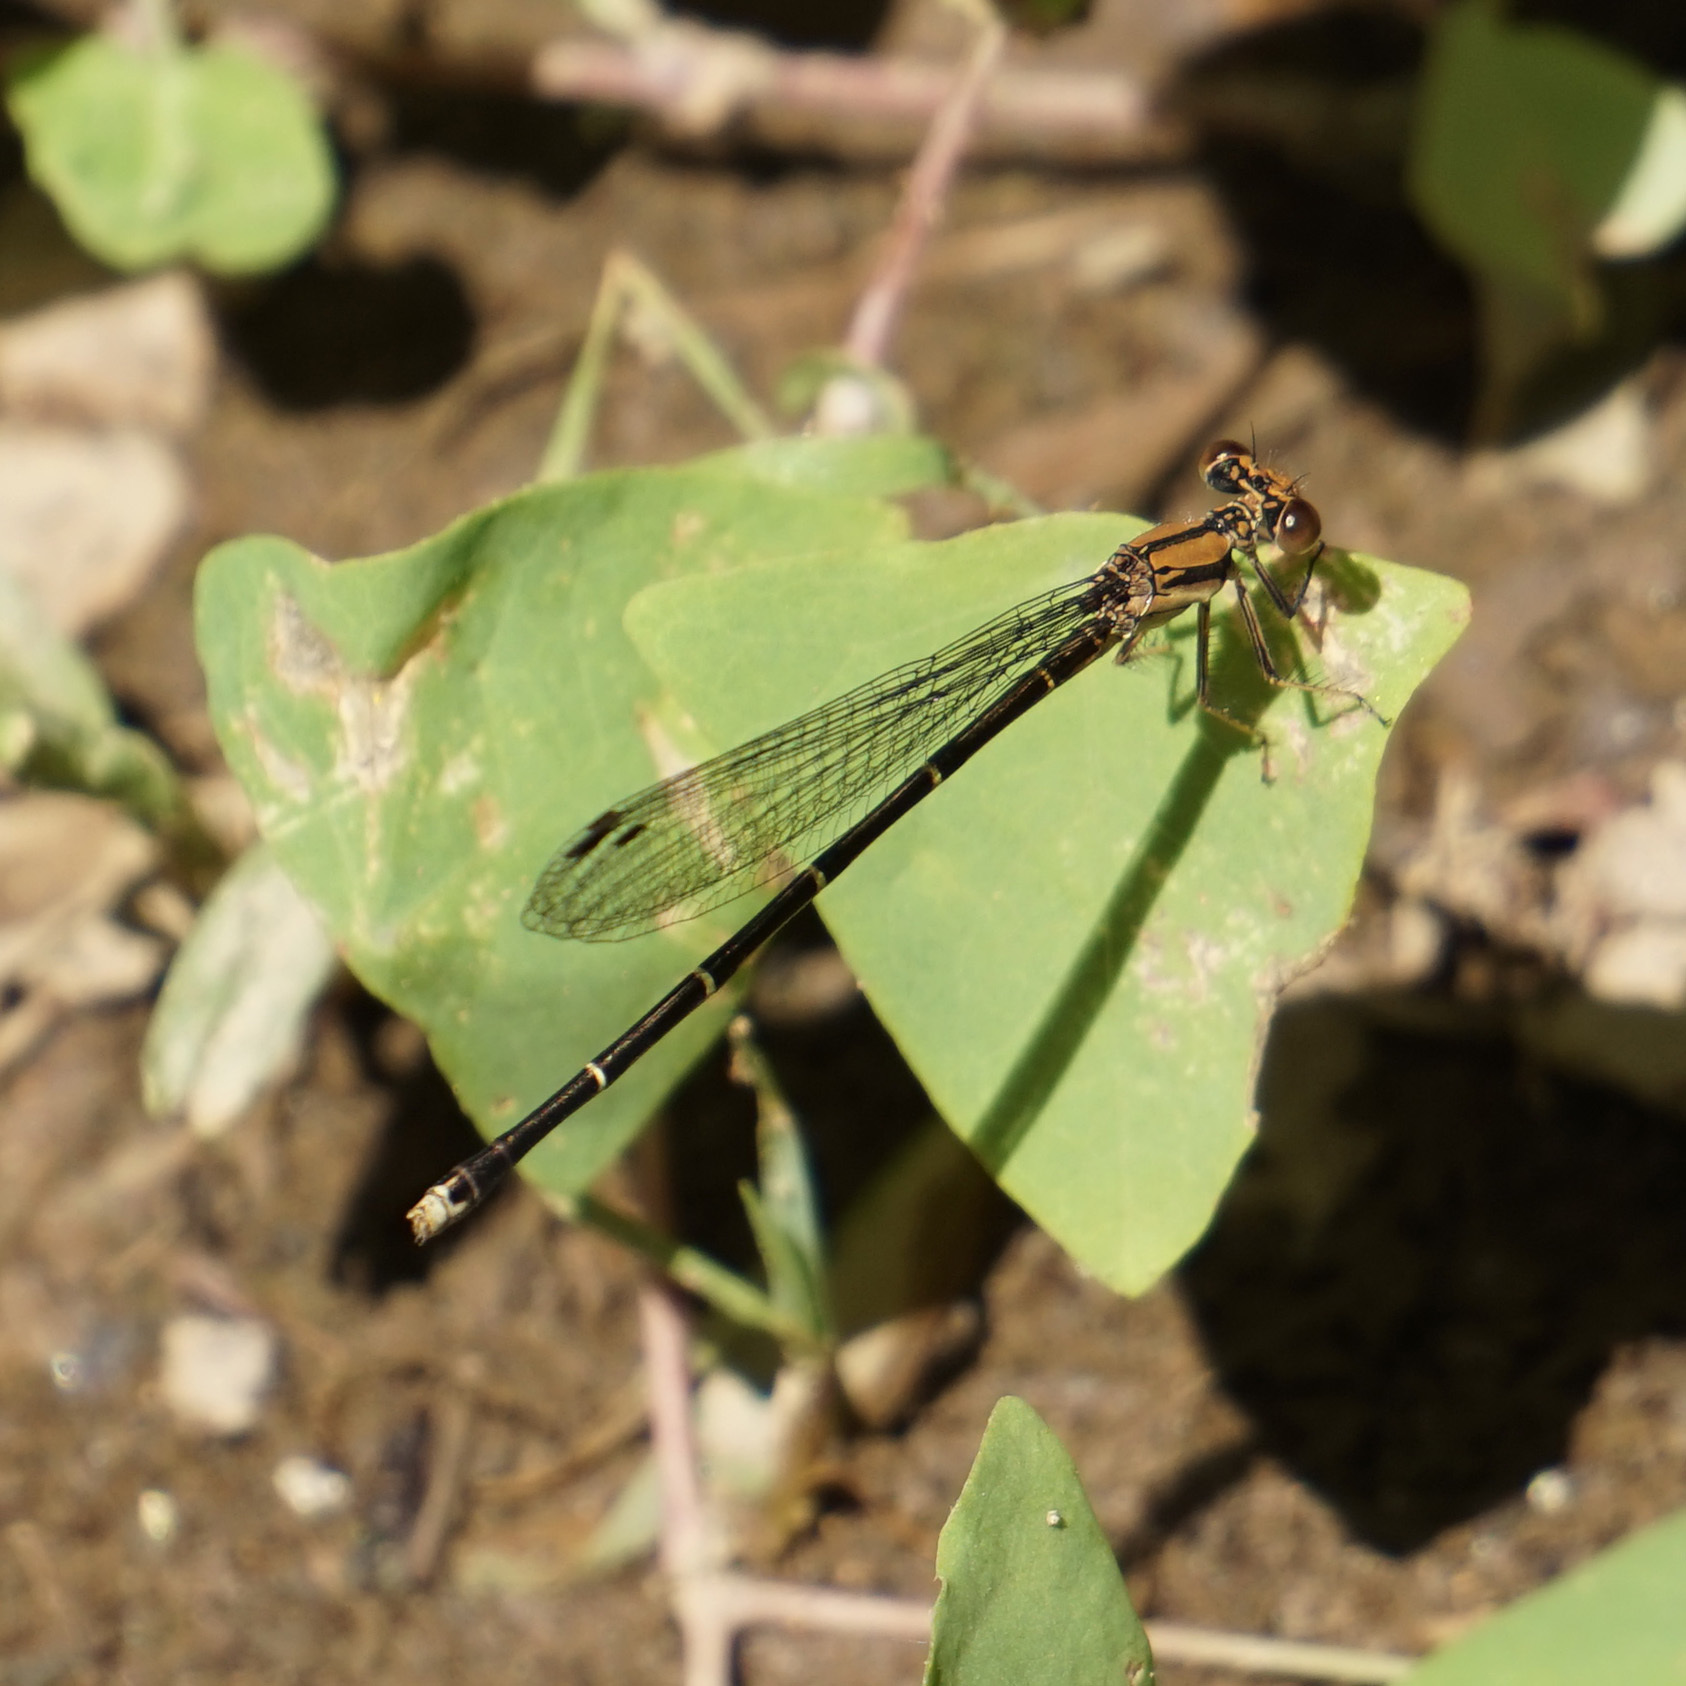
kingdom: Animalia
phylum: Arthropoda
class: Insecta
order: Odonata
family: Coenagrionidae
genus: Argia
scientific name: Argia tibialis
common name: Blue-tipped dancer
